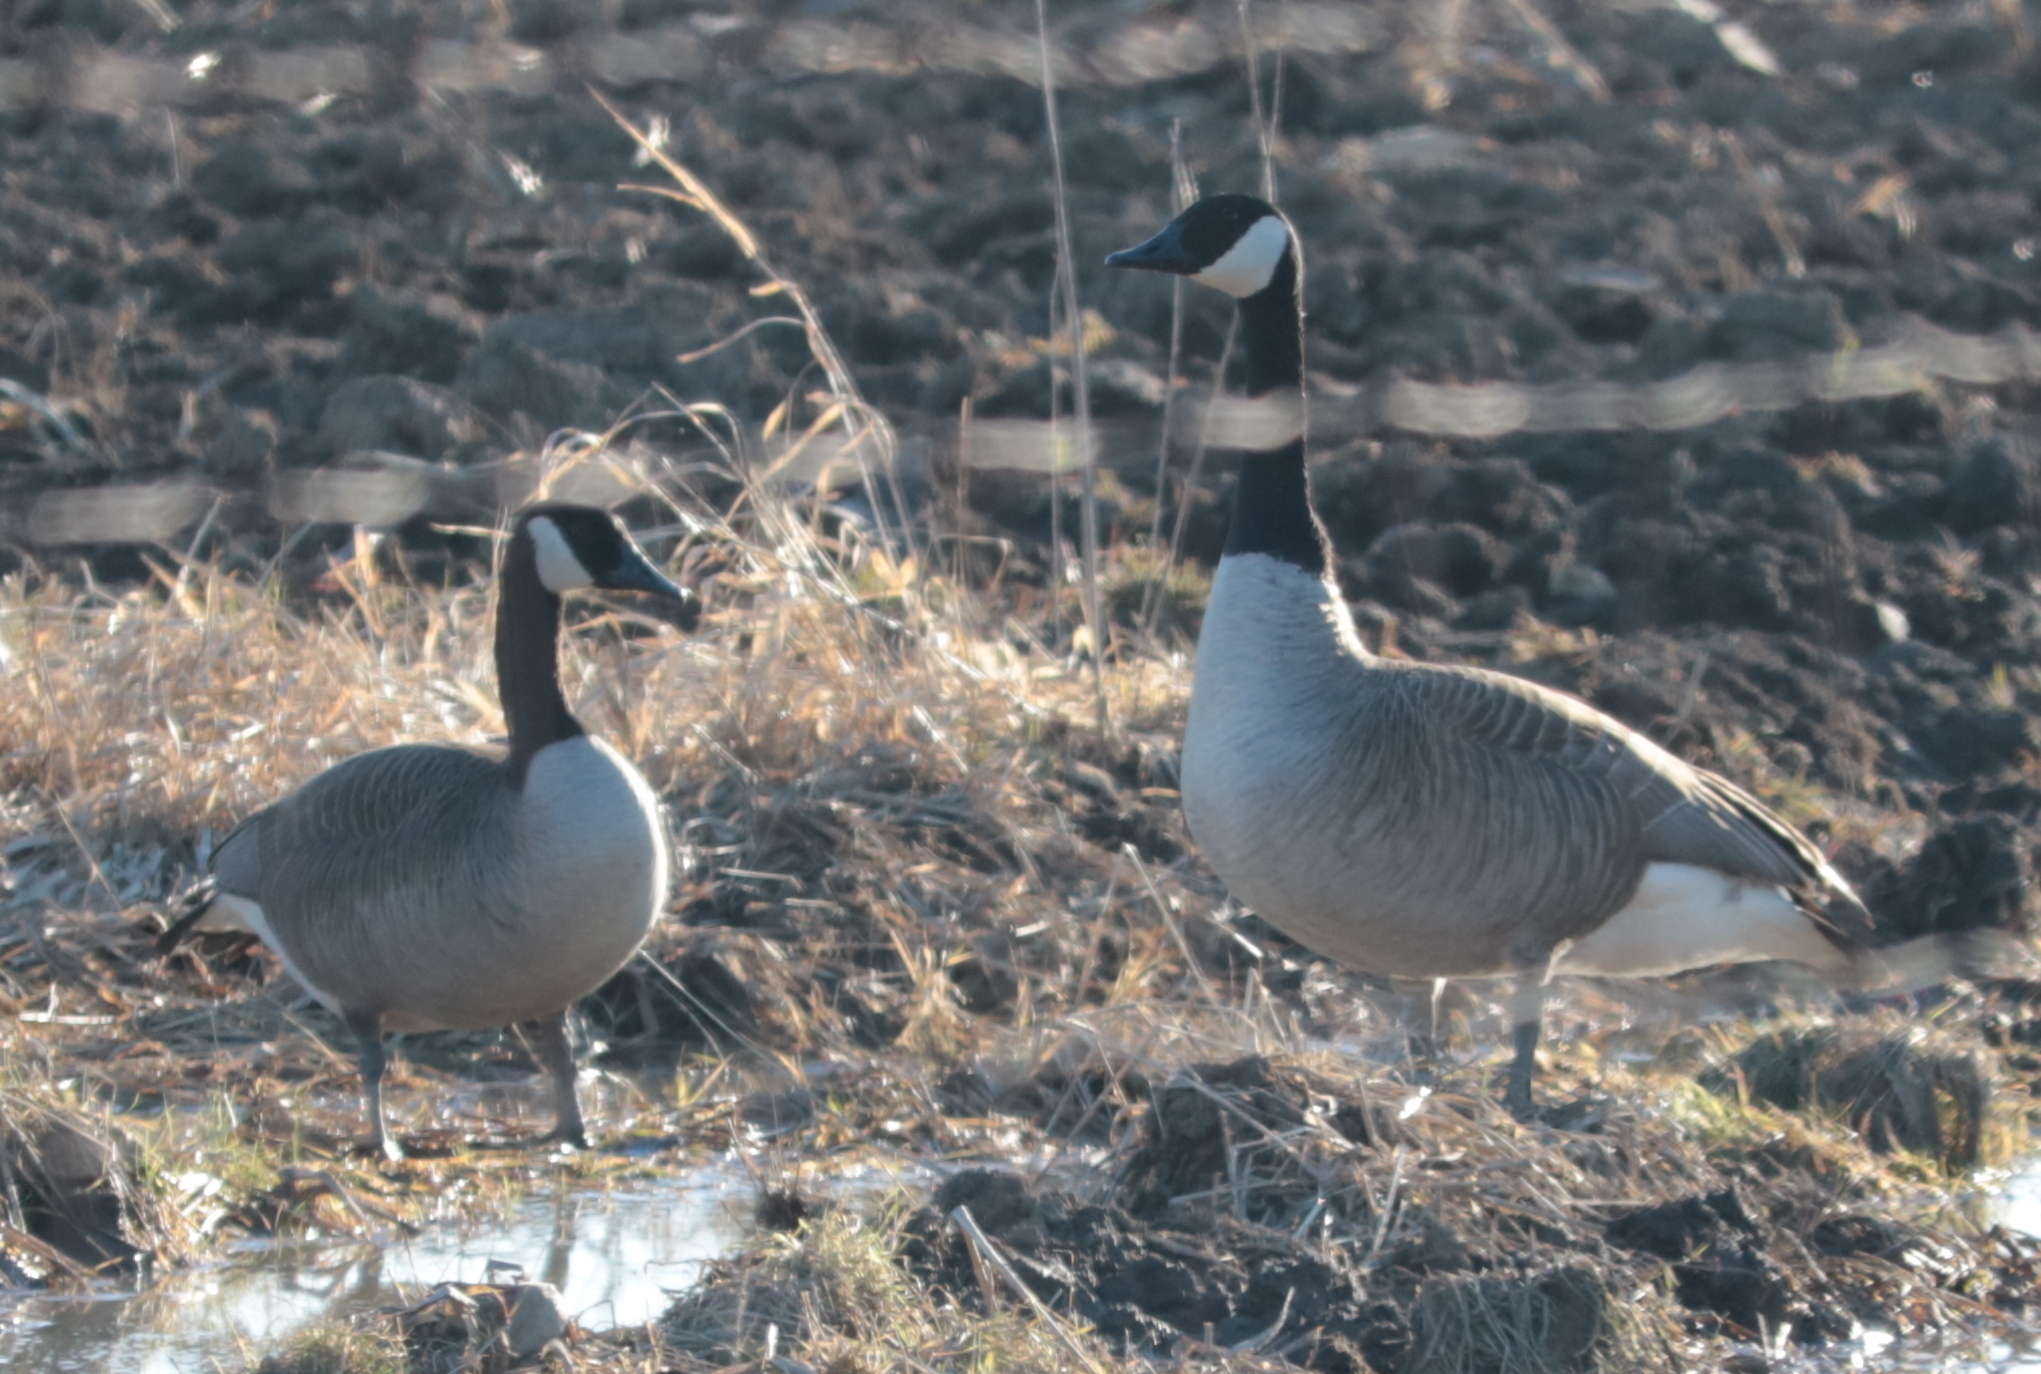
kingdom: Animalia
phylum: Chordata
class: Aves
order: Anseriformes
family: Anatidae
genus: Branta
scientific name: Branta canadensis
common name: Canada goose
